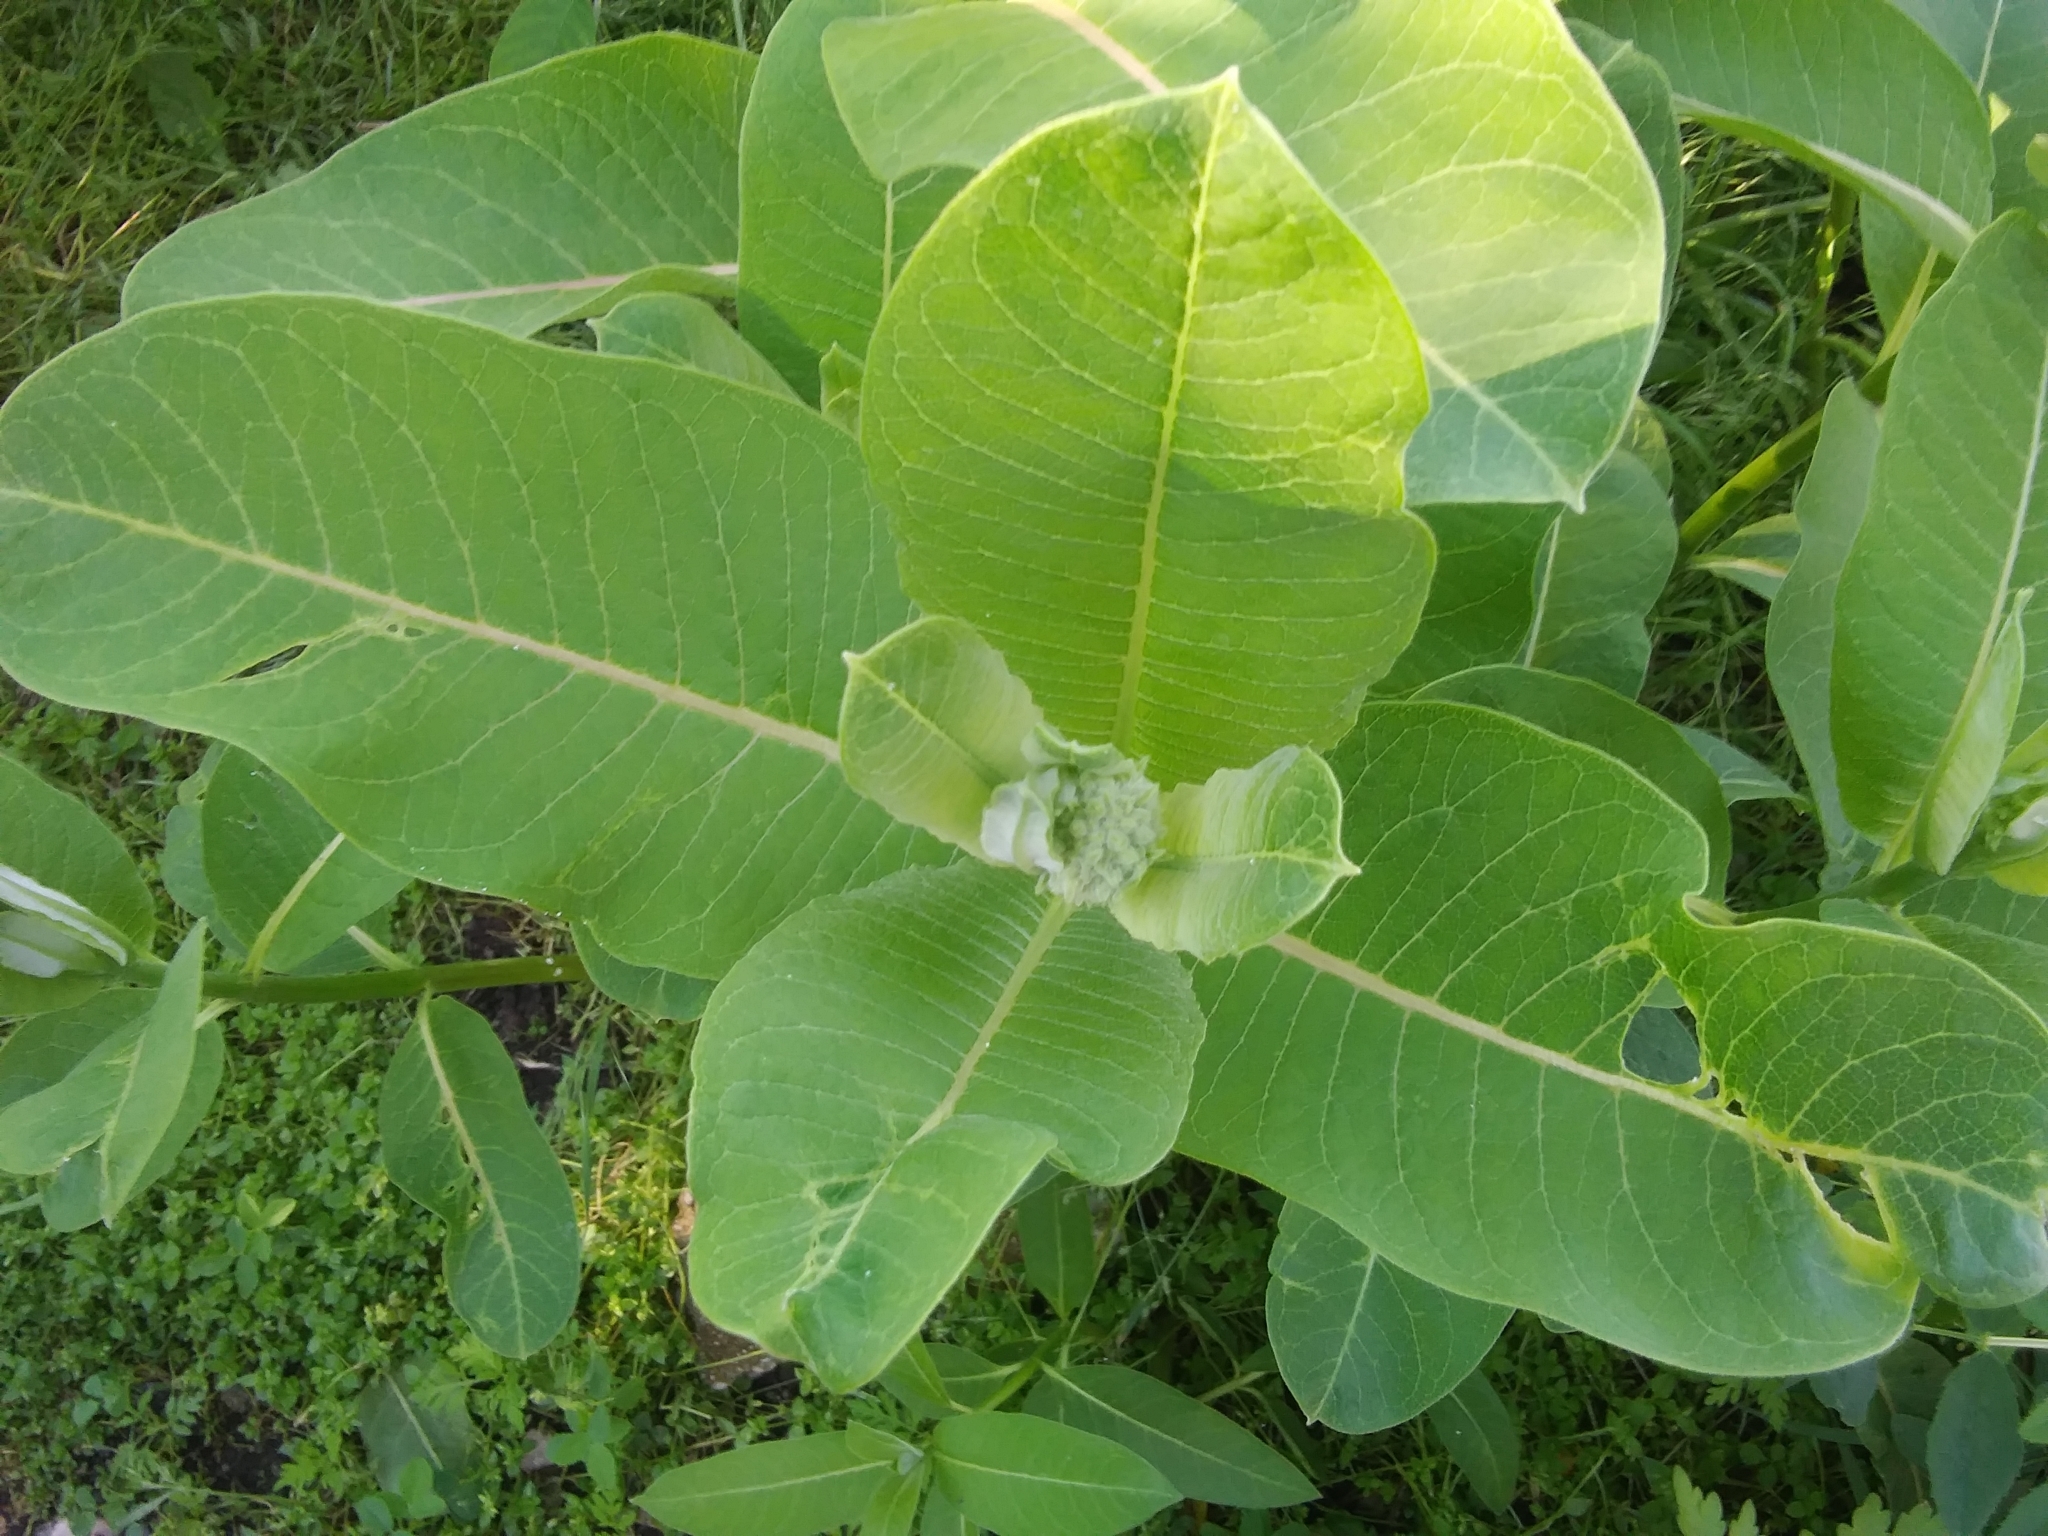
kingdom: Plantae
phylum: Tracheophyta
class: Magnoliopsida
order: Gentianales
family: Apocynaceae
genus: Asclepias
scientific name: Asclepias syriaca
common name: Common milkweed
